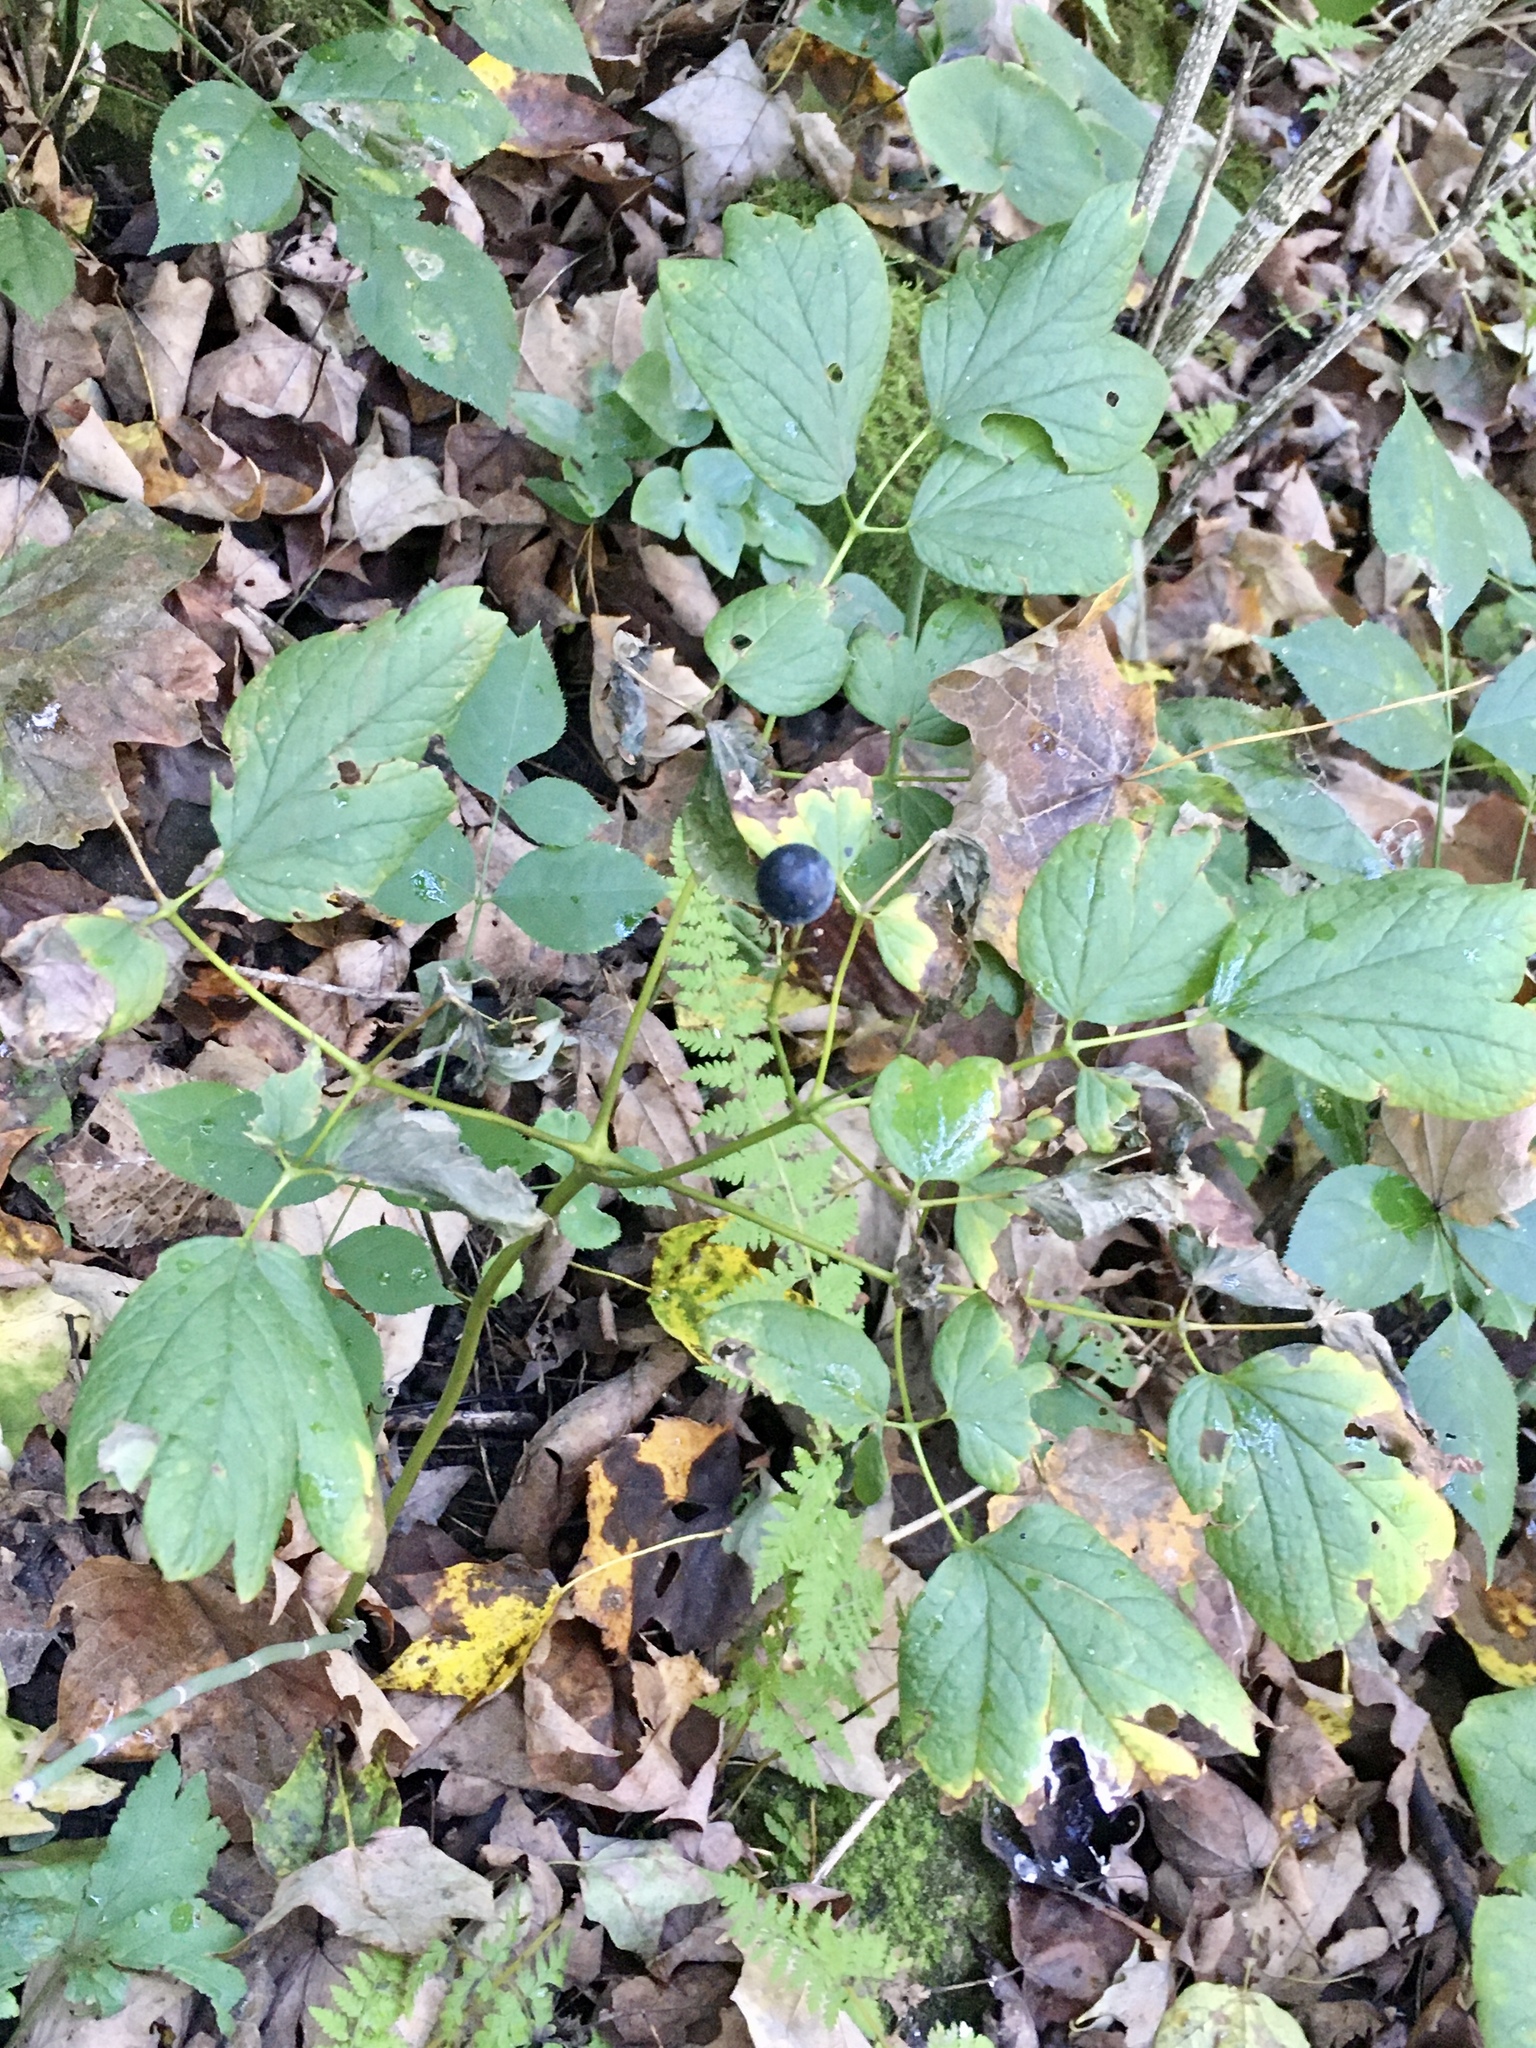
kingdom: Plantae
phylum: Tracheophyta
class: Magnoliopsida
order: Ranunculales
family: Berberidaceae
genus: Caulophyllum
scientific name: Caulophyllum thalictroides
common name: Blue cohosh
